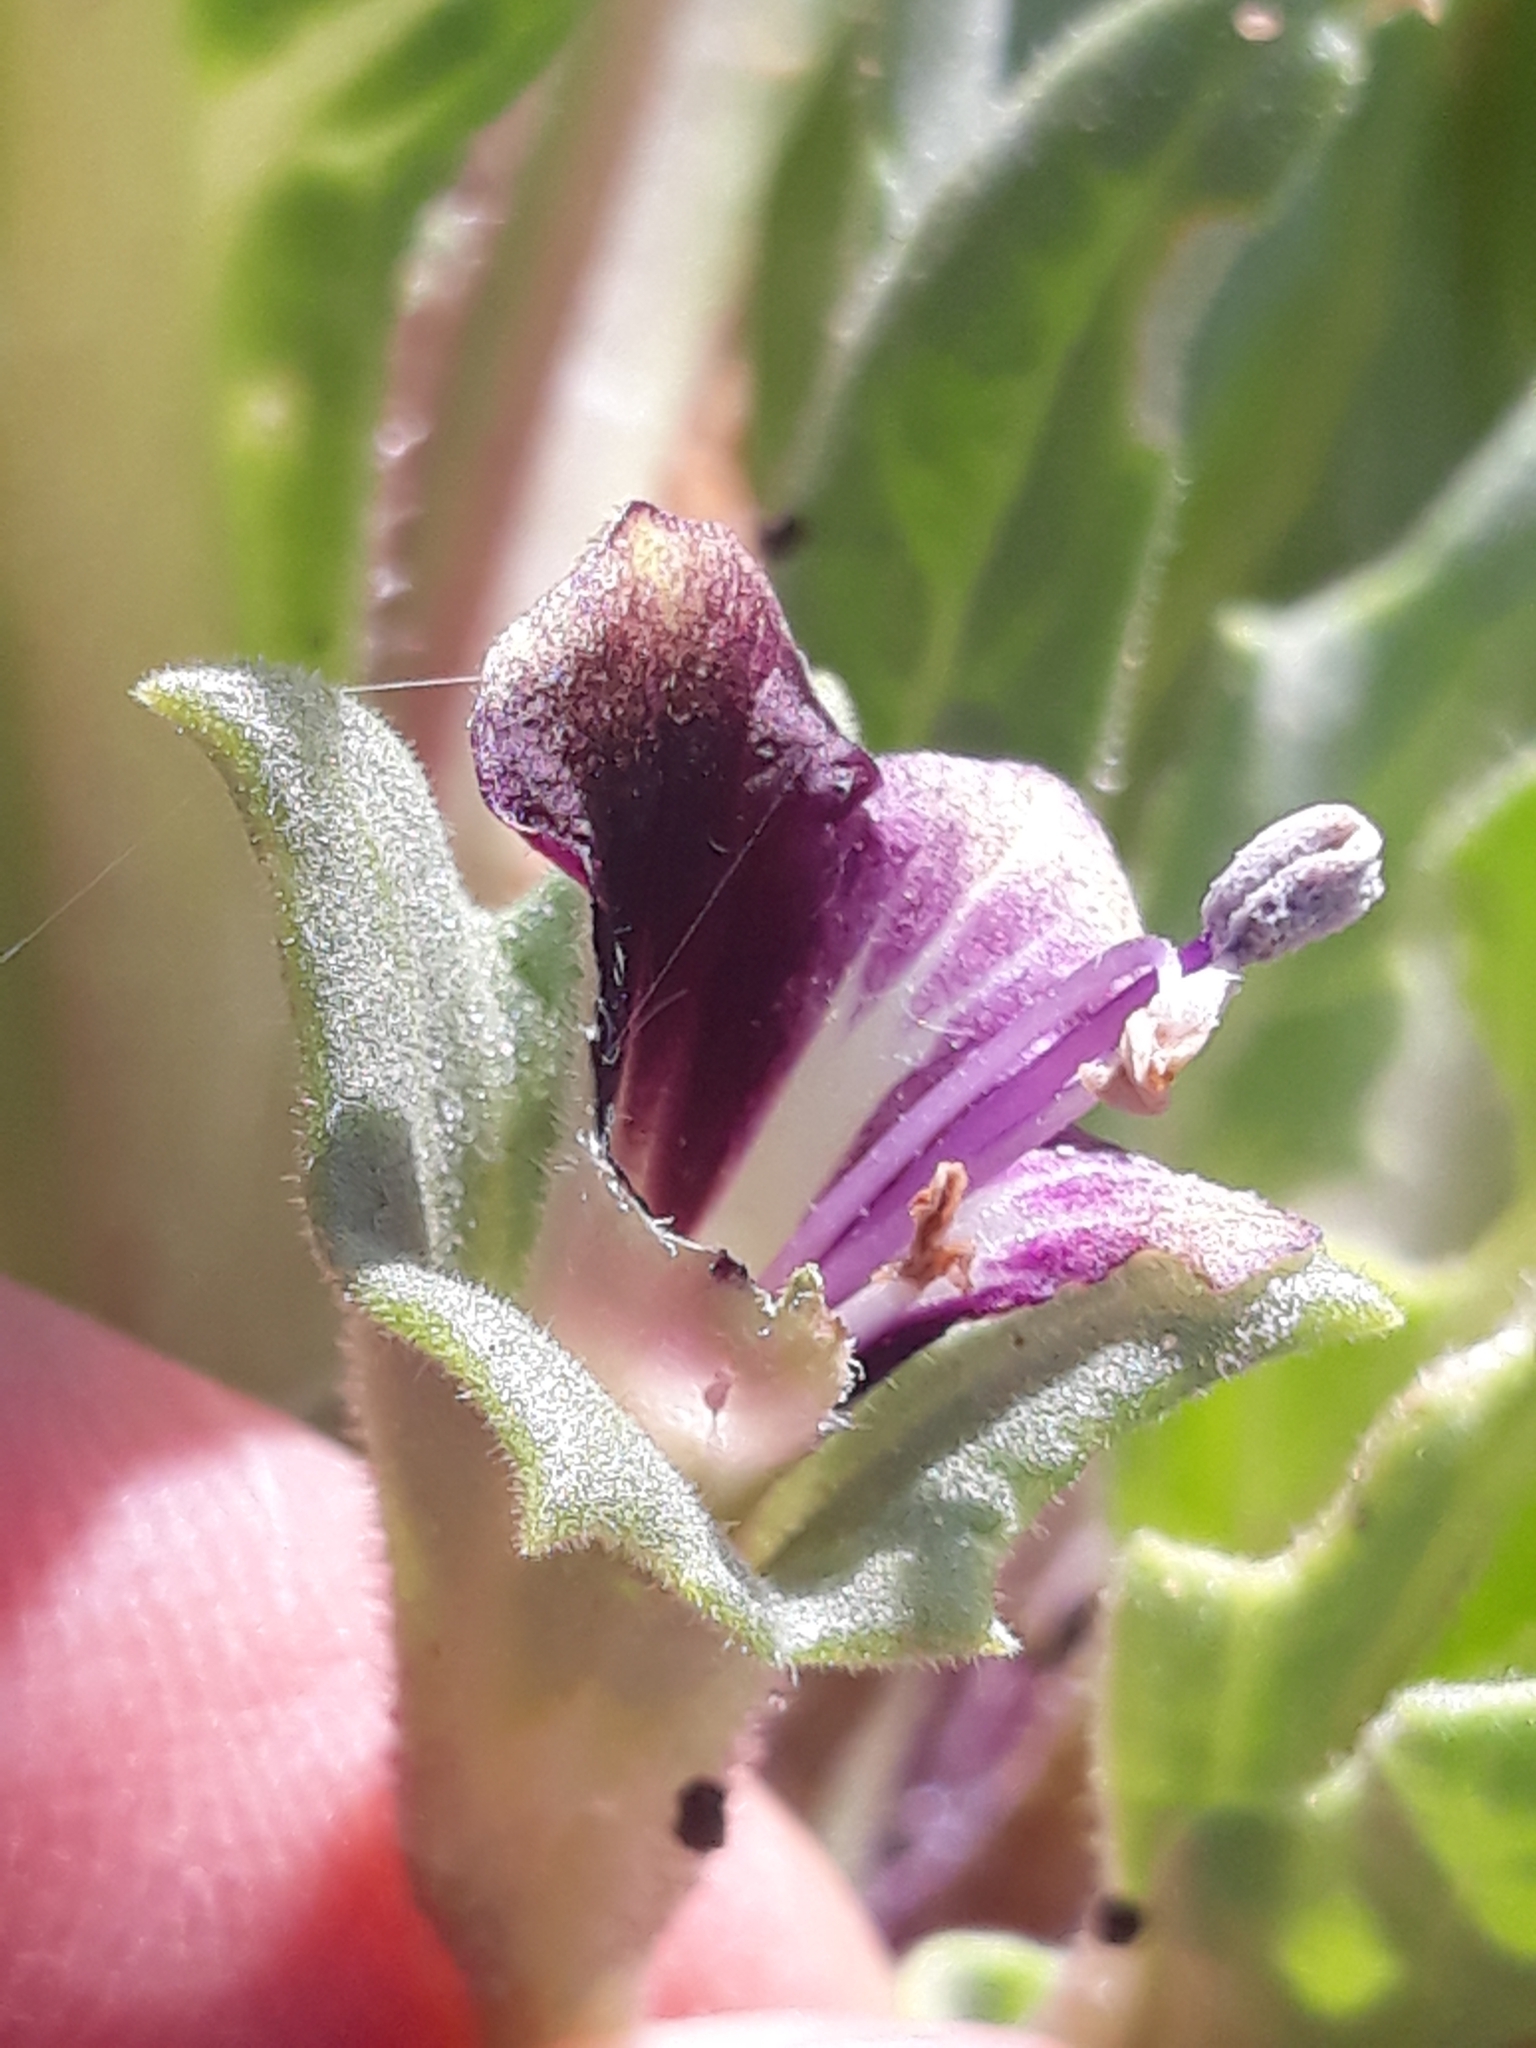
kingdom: Plantae
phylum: Tracheophyta
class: Magnoliopsida
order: Solanales
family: Solanaceae
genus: Hyoscyamus
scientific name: Hyoscyamus muticus
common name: Henbane
